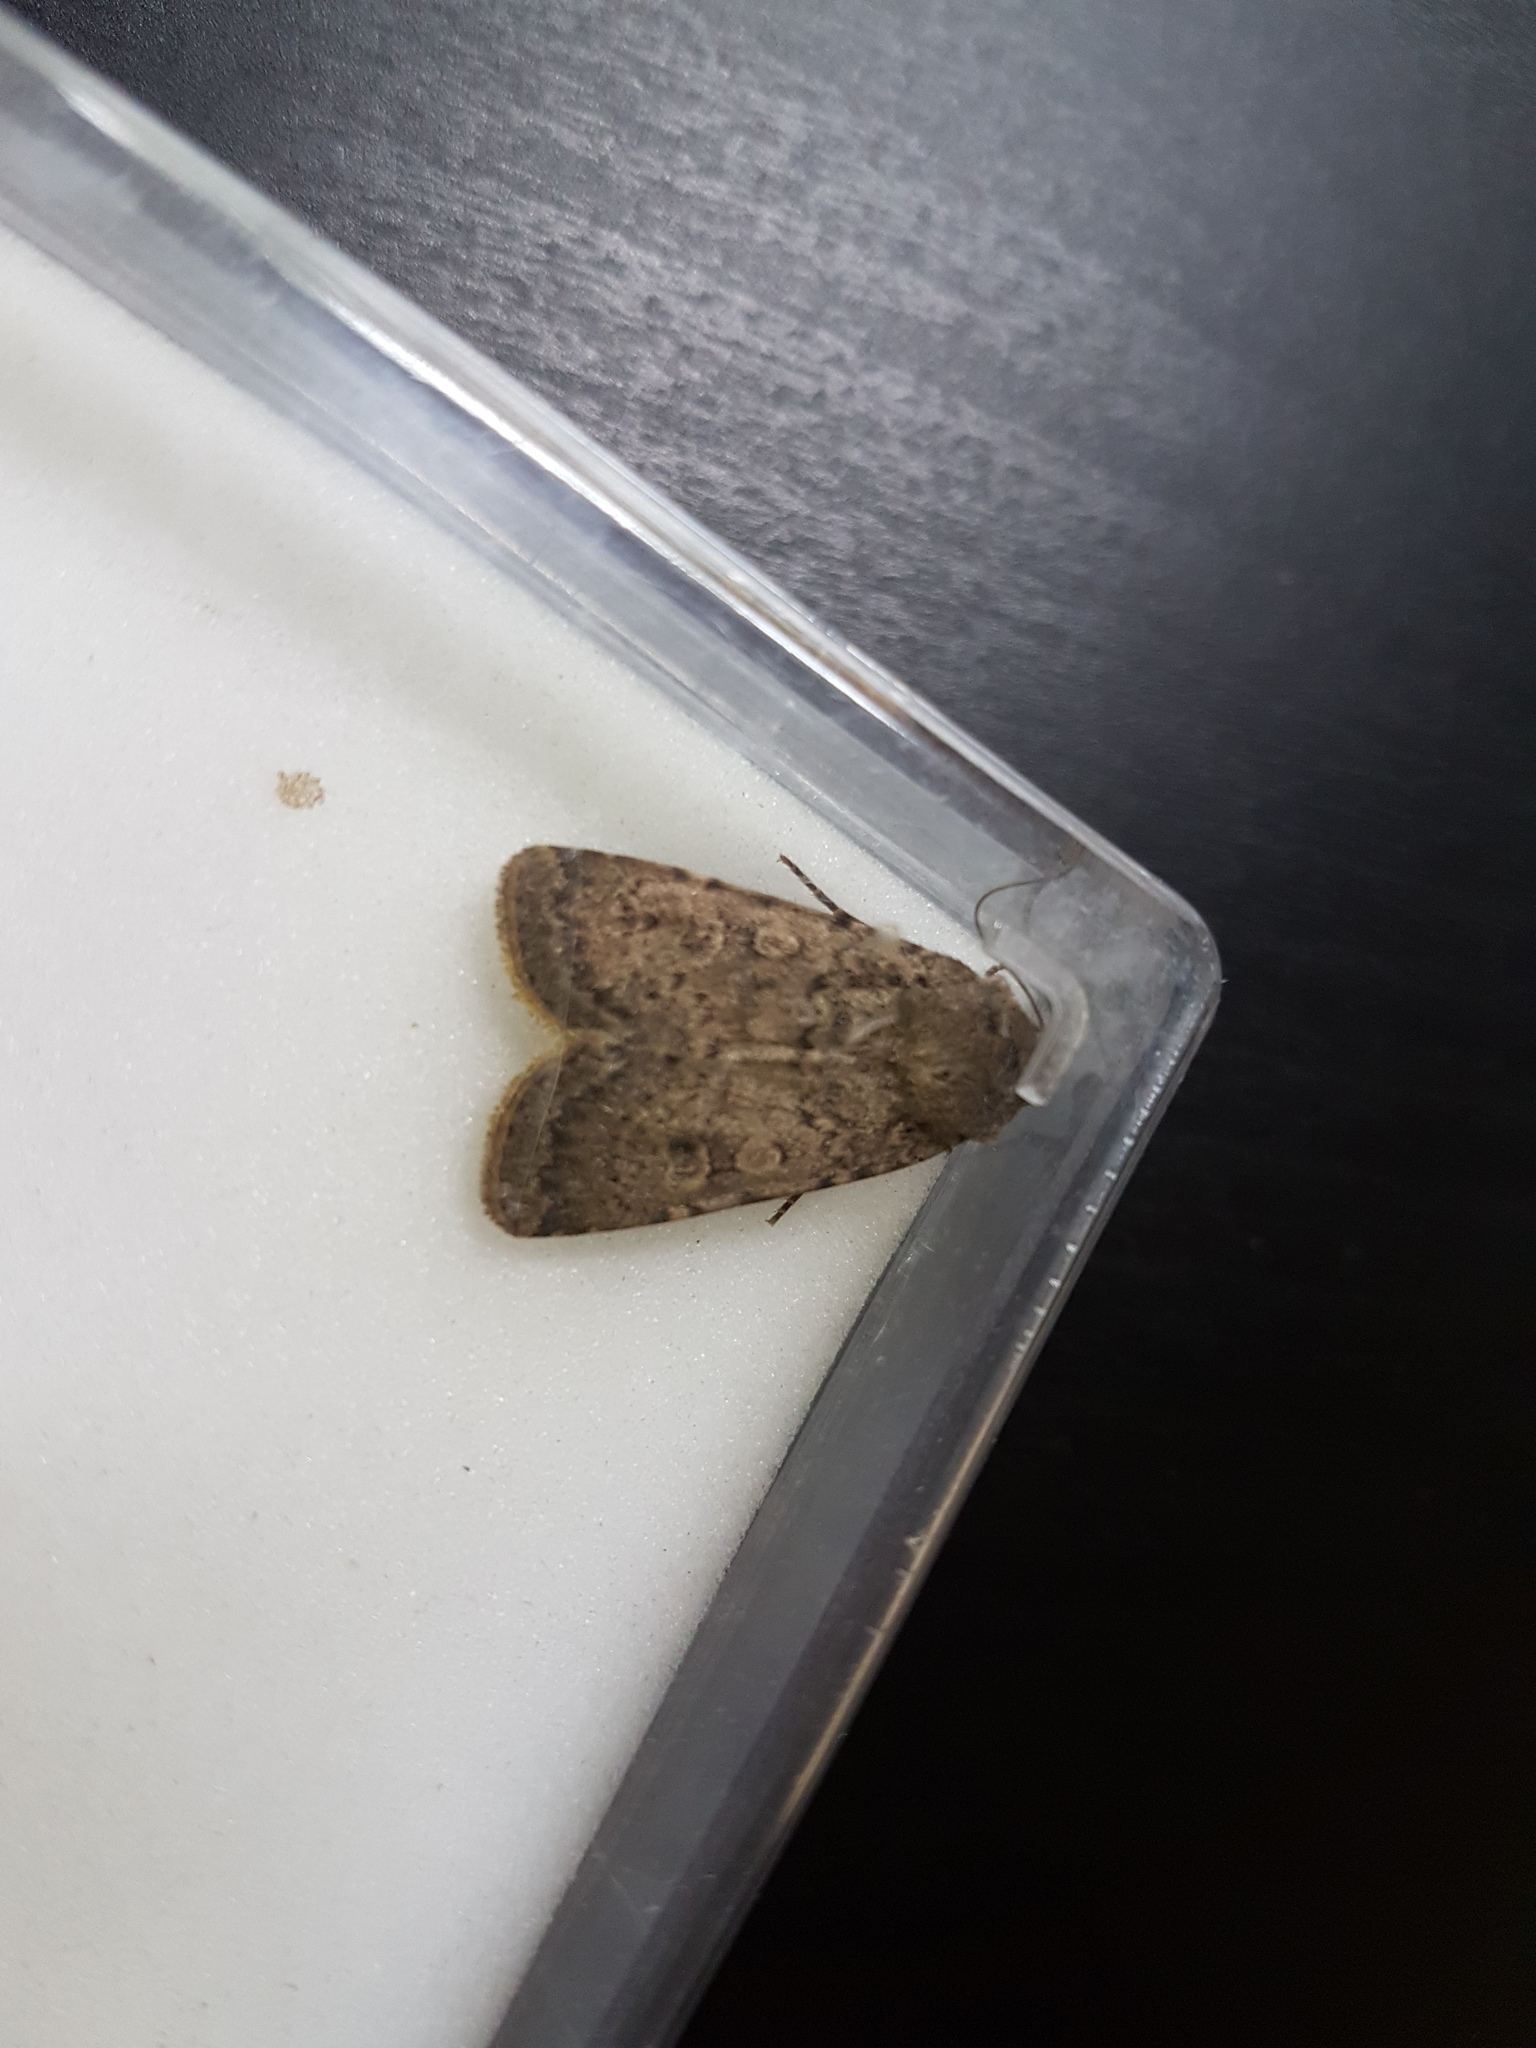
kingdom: Animalia
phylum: Arthropoda
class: Insecta
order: Lepidoptera
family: Noctuidae
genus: Rhyacia
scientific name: Rhyacia simulans
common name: Dotted rustic
